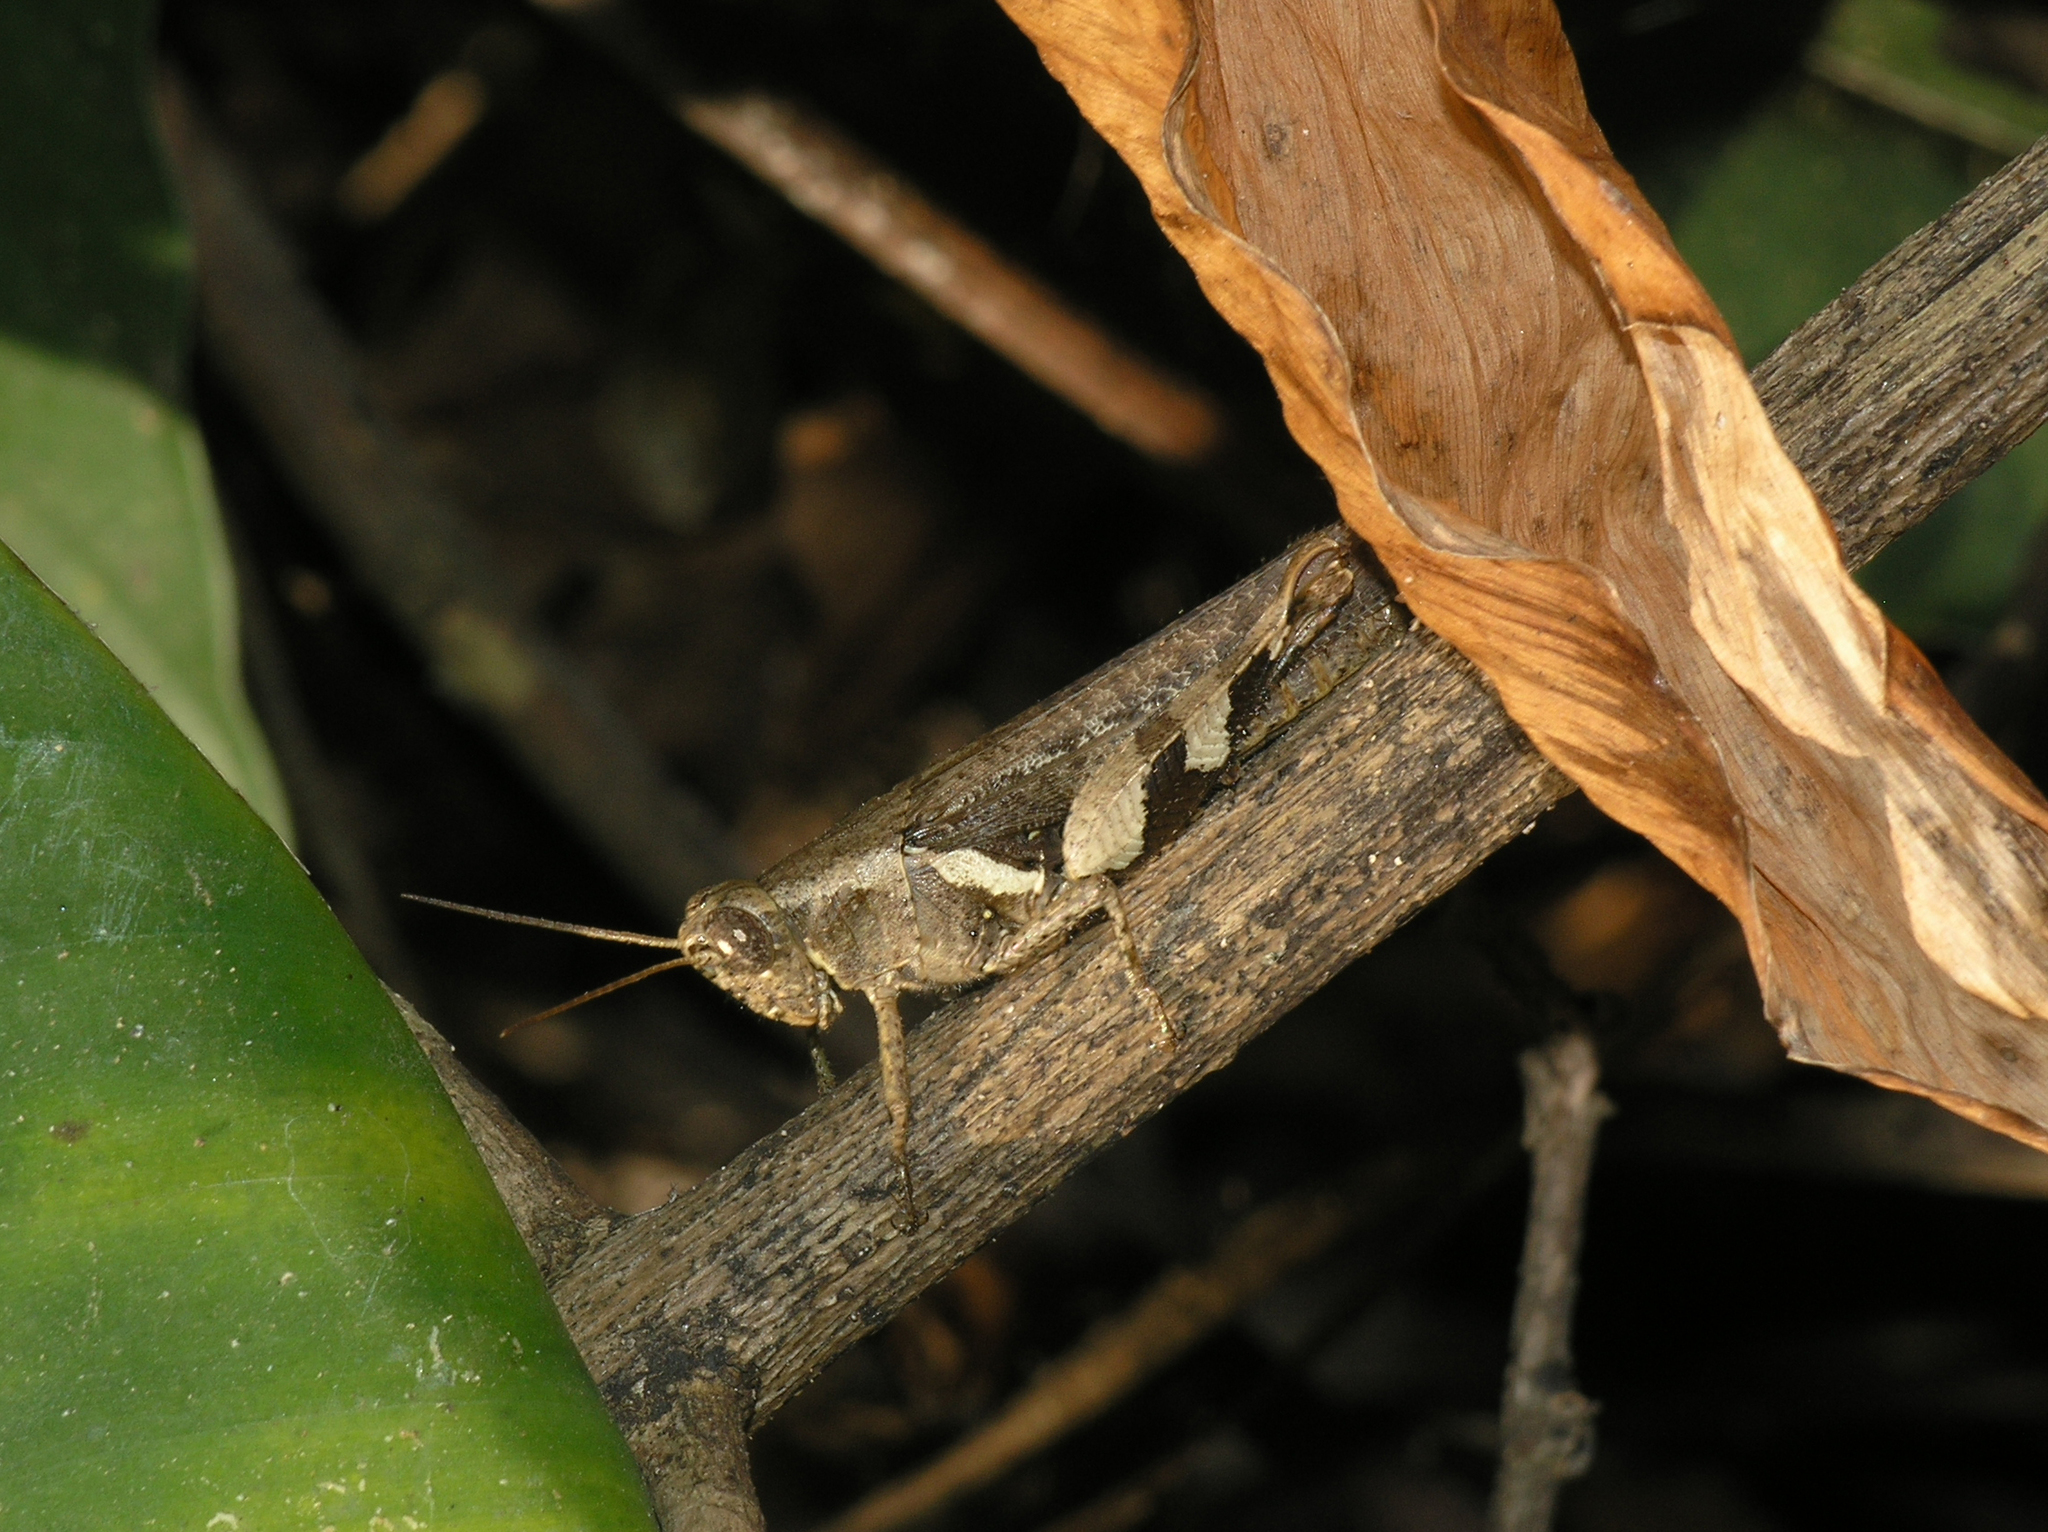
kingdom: Animalia
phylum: Arthropoda
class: Insecta
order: Orthoptera
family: Acrididae
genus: Xenocatantops
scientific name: Xenocatantops humile
